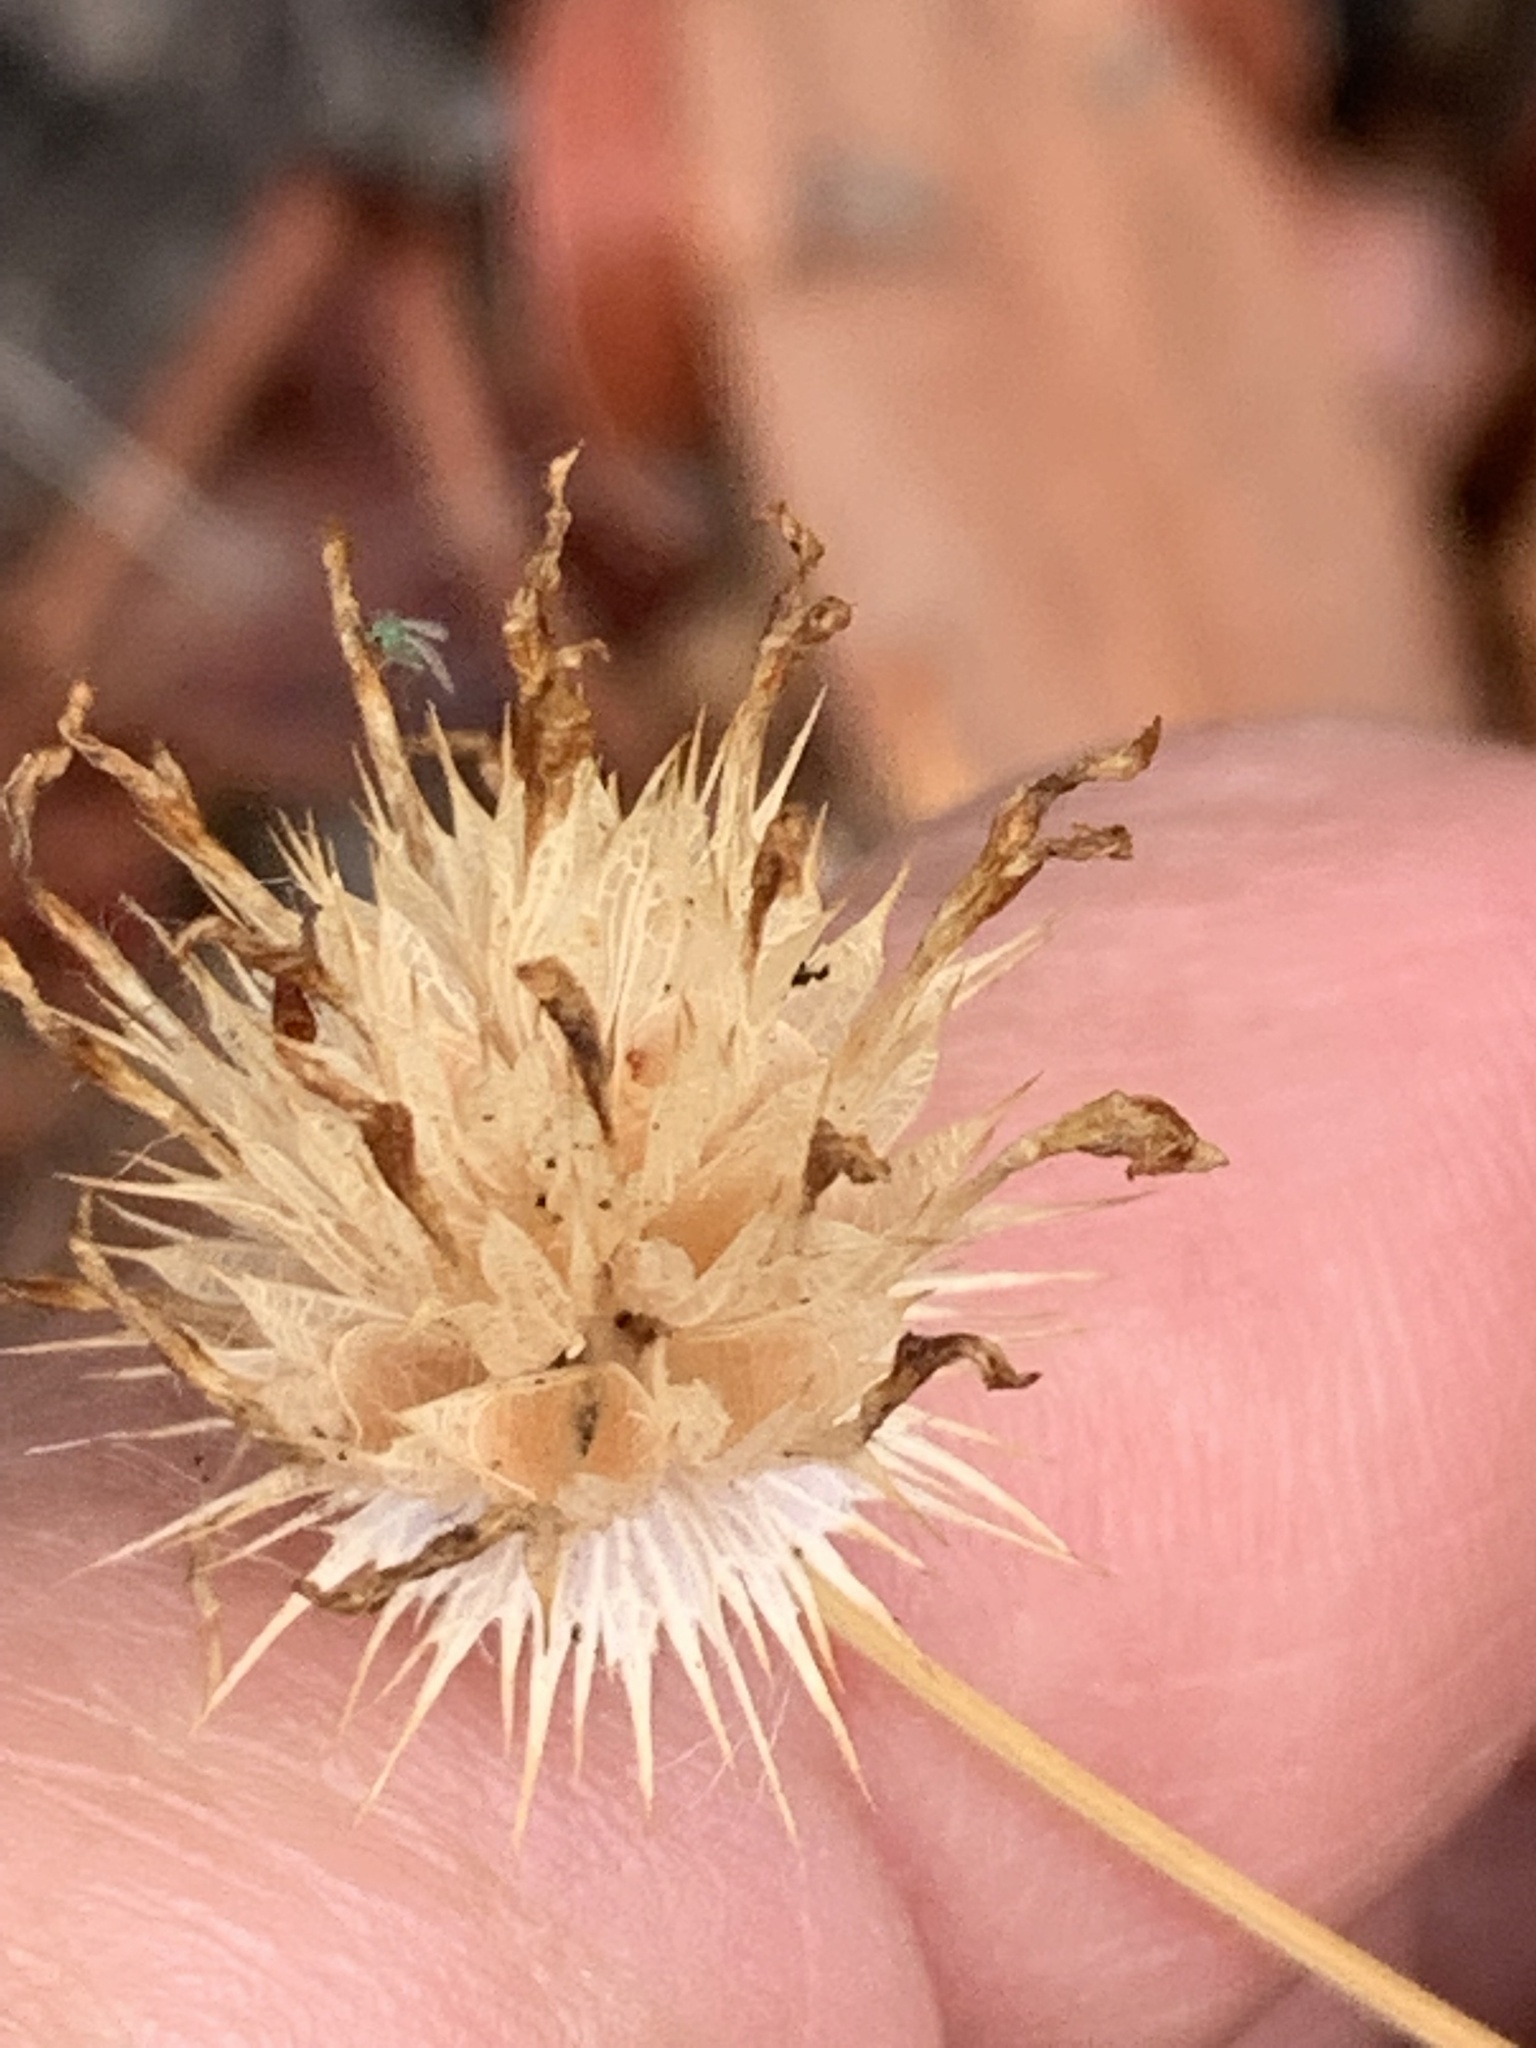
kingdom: Plantae
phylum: Tracheophyta
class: Magnoliopsida
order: Fabales
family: Fabaceae
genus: Trifolium
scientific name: Trifolium willdenovii
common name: Tomcat clover
